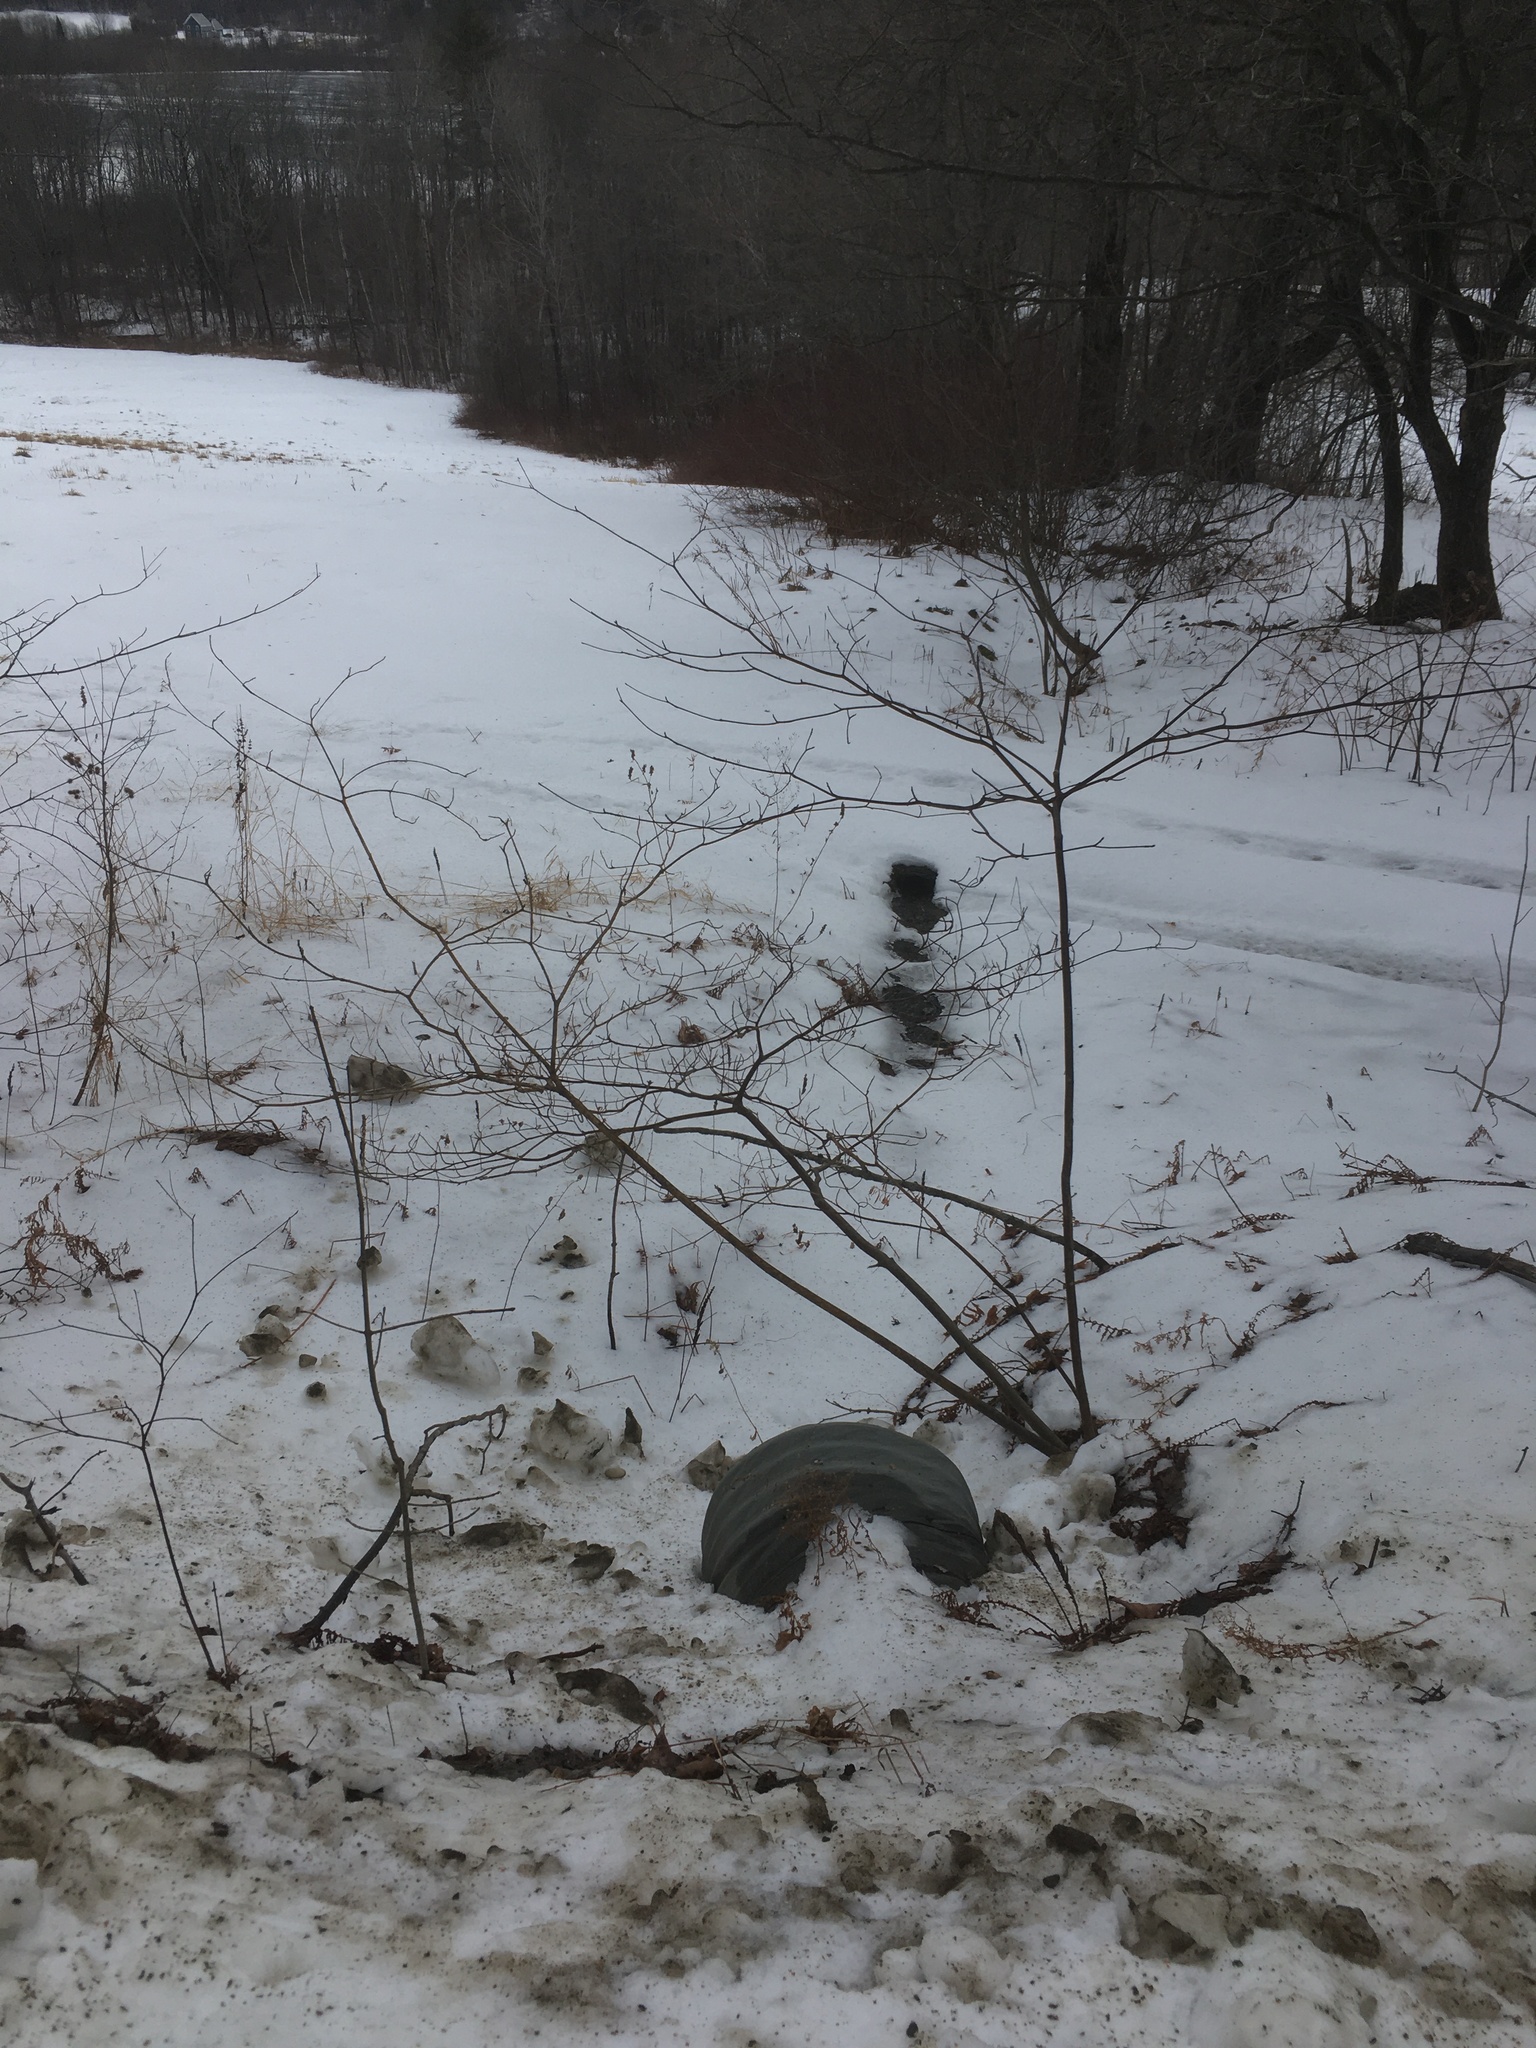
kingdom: Plantae
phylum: Tracheophyta
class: Magnoliopsida
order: Cornales
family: Cornaceae
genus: Cornus
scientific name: Cornus alternifolia
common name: Pagoda dogwood
